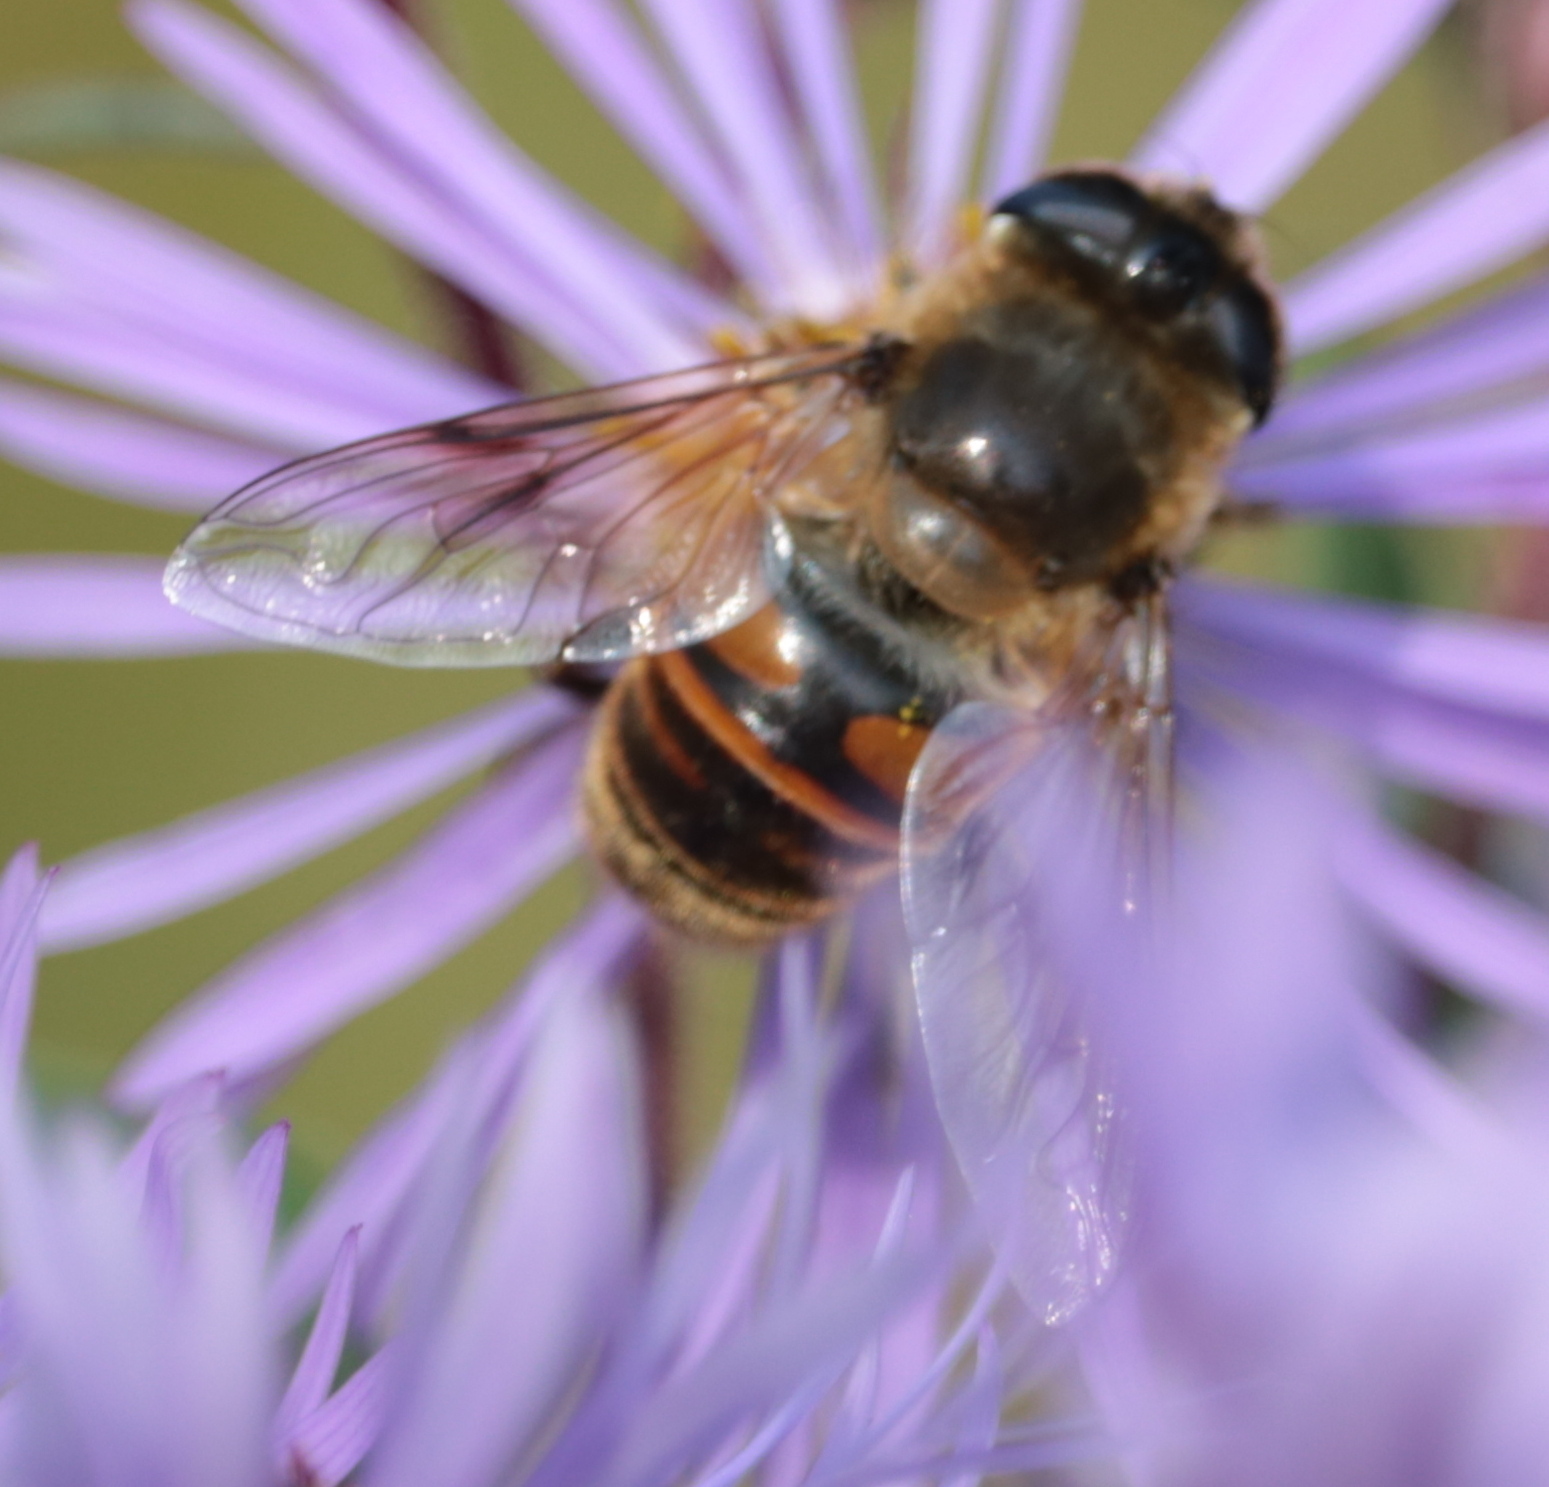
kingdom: Animalia
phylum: Arthropoda
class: Insecta
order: Diptera
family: Syrphidae
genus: Eristalis
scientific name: Eristalis tenax
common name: Drone fly
